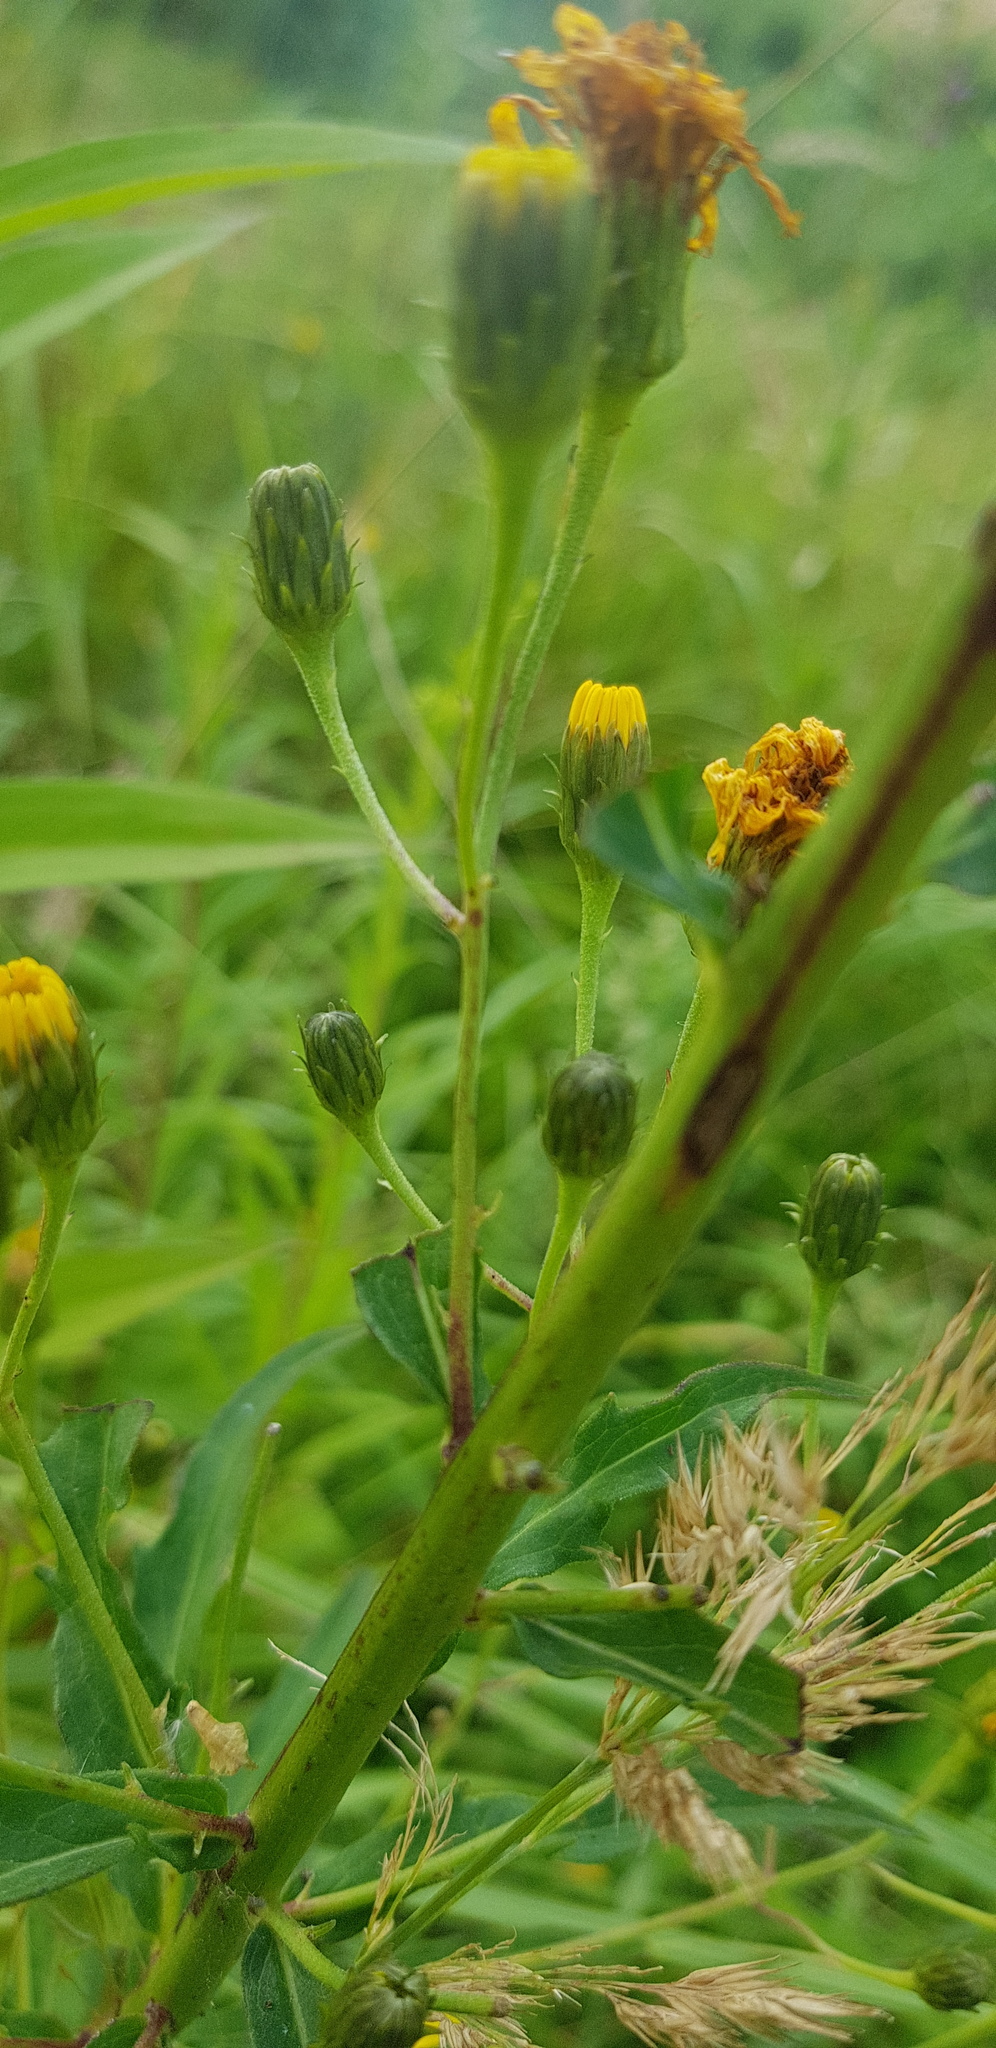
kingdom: Plantae
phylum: Tracheophyta
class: Magnoliopsida
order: Asterales
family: Asteraceae
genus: Hieracium
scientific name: Hieracium umbellatum
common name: Northern hawkweed
